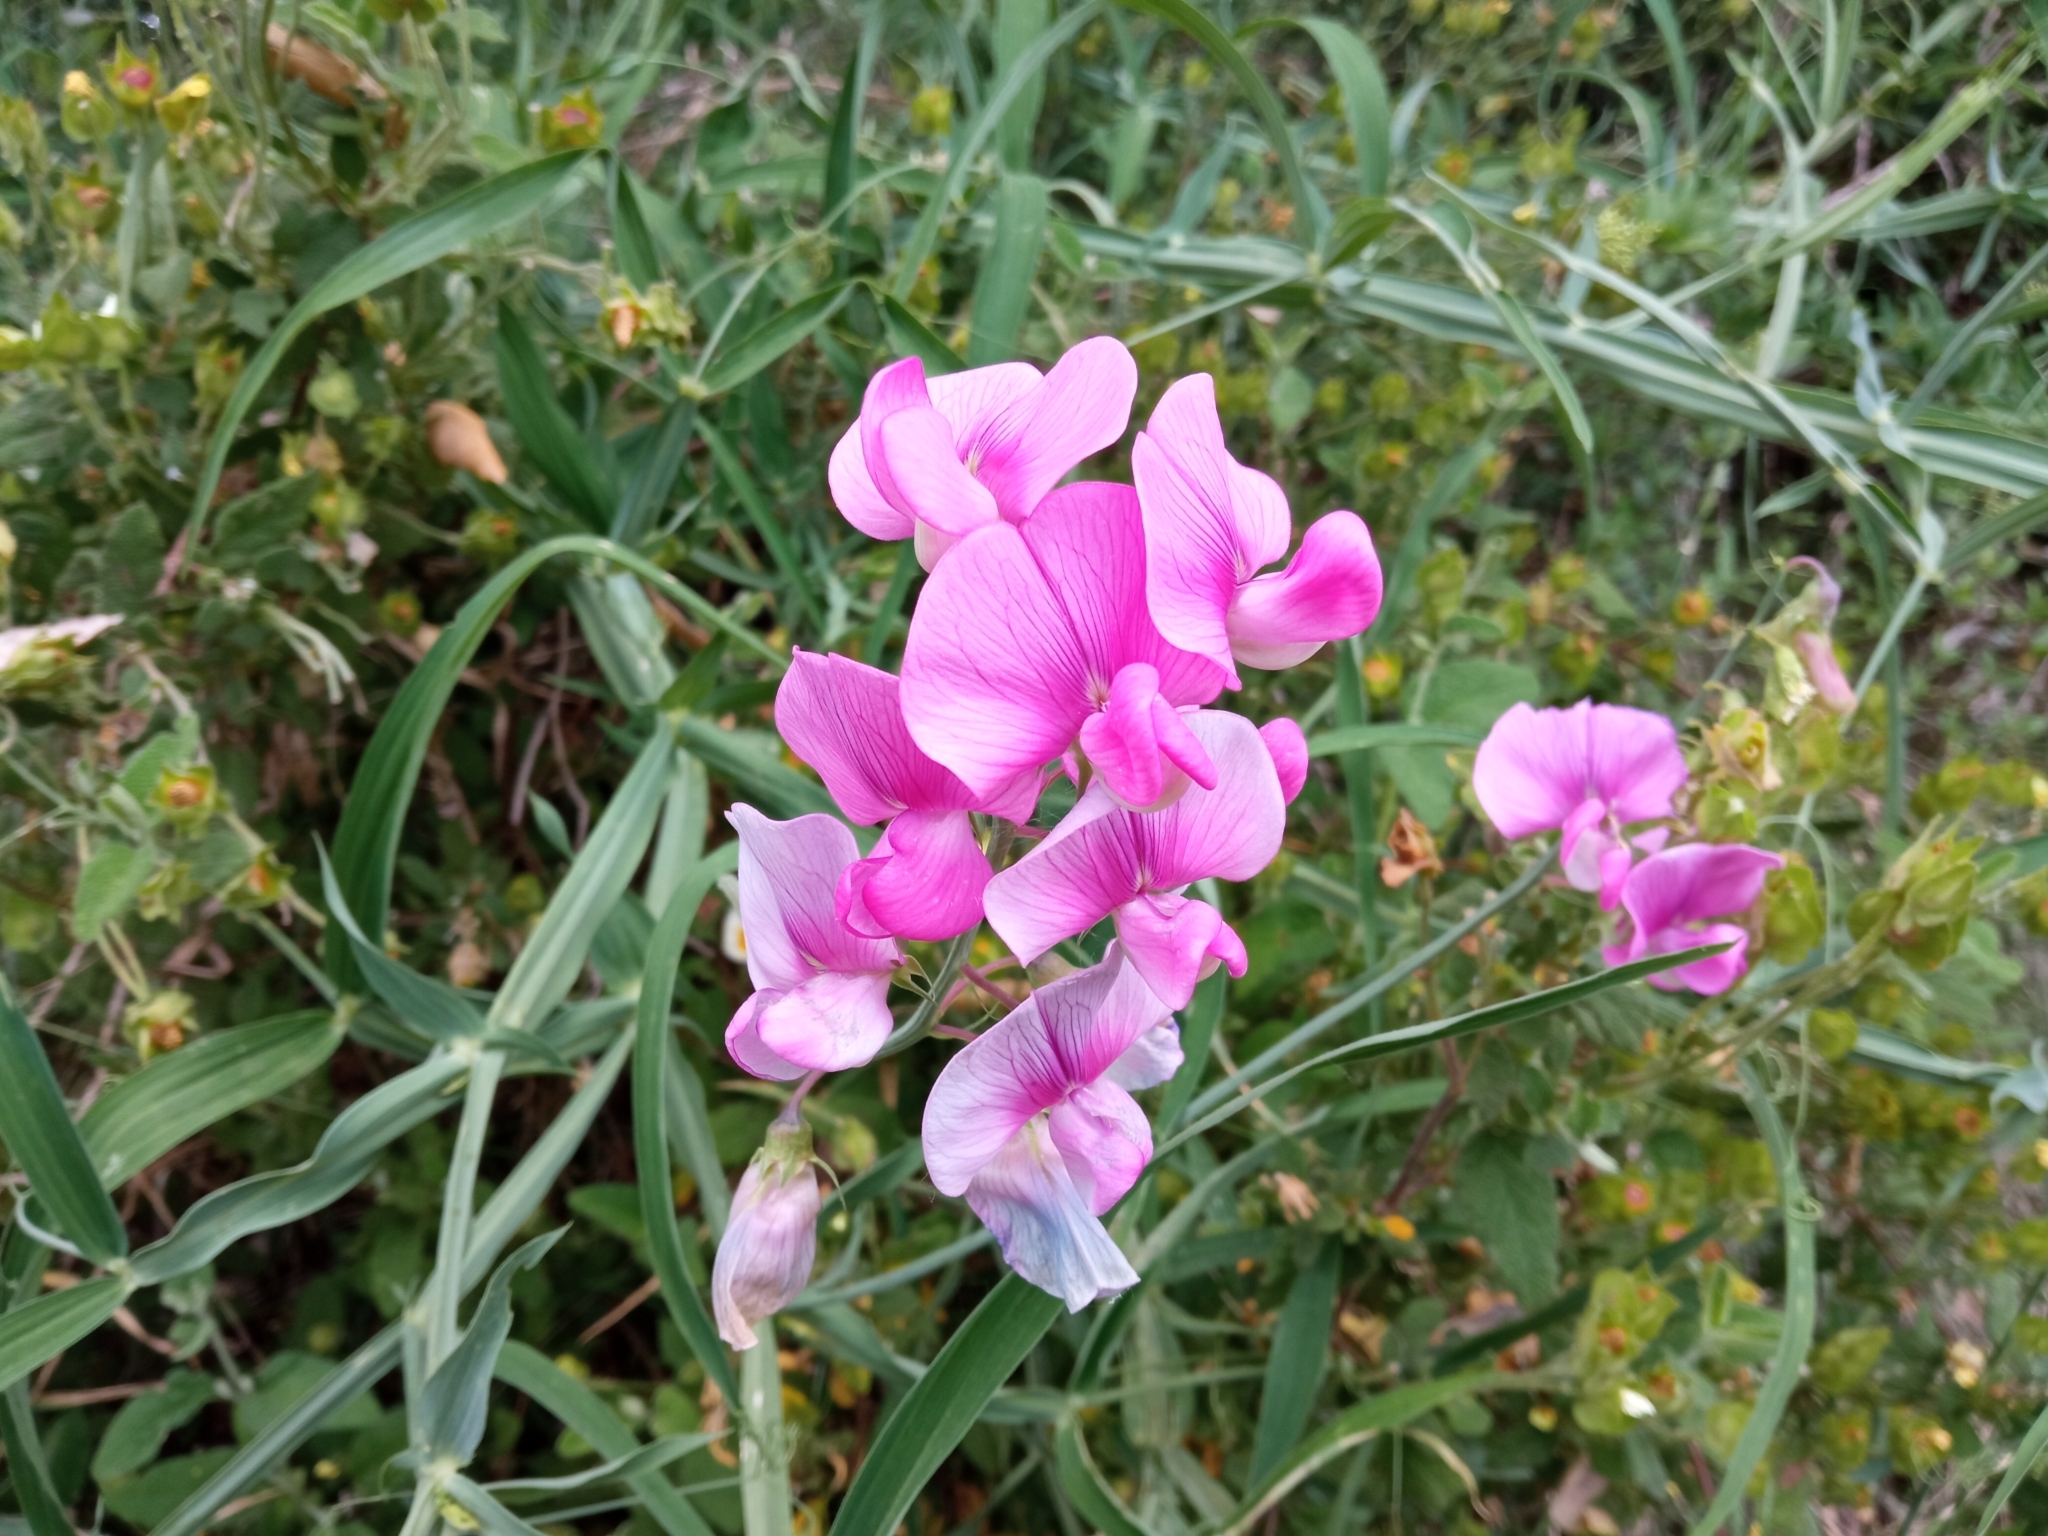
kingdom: Plantae
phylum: Tracheophyta
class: Magnoliopsida
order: Fabales
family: Fabaceae
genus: Lathyrus
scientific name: Lathyrus latifolius
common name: Perennial pea
